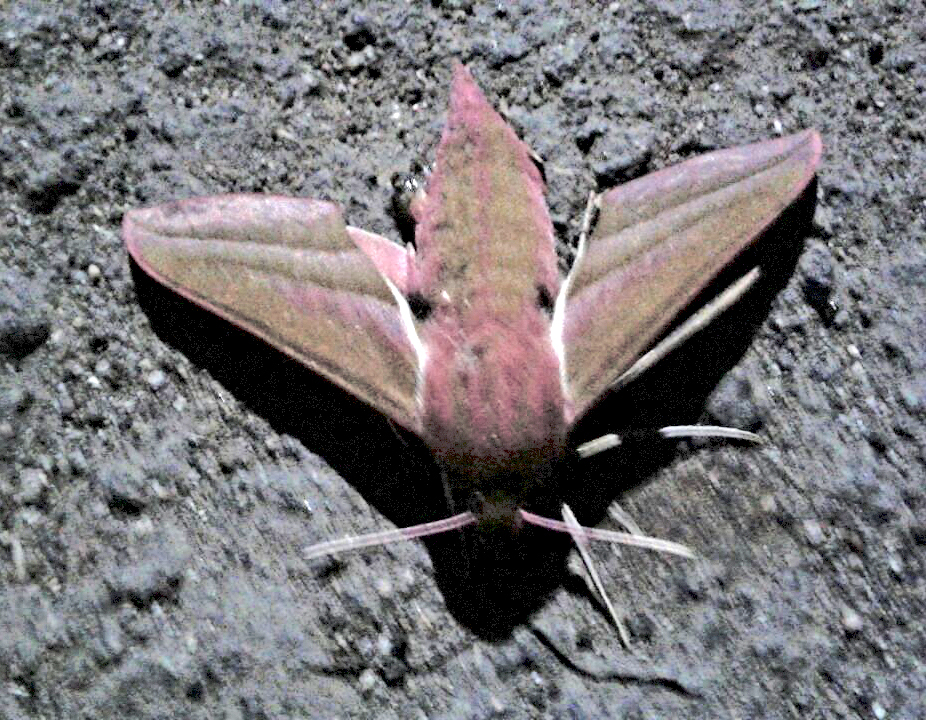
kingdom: Animalia
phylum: Arthropoda
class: Insecta
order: Lepidoptera
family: Sphingidae
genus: Deilephila
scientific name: Deilephila elpenor
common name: Elephant hawk-moth
